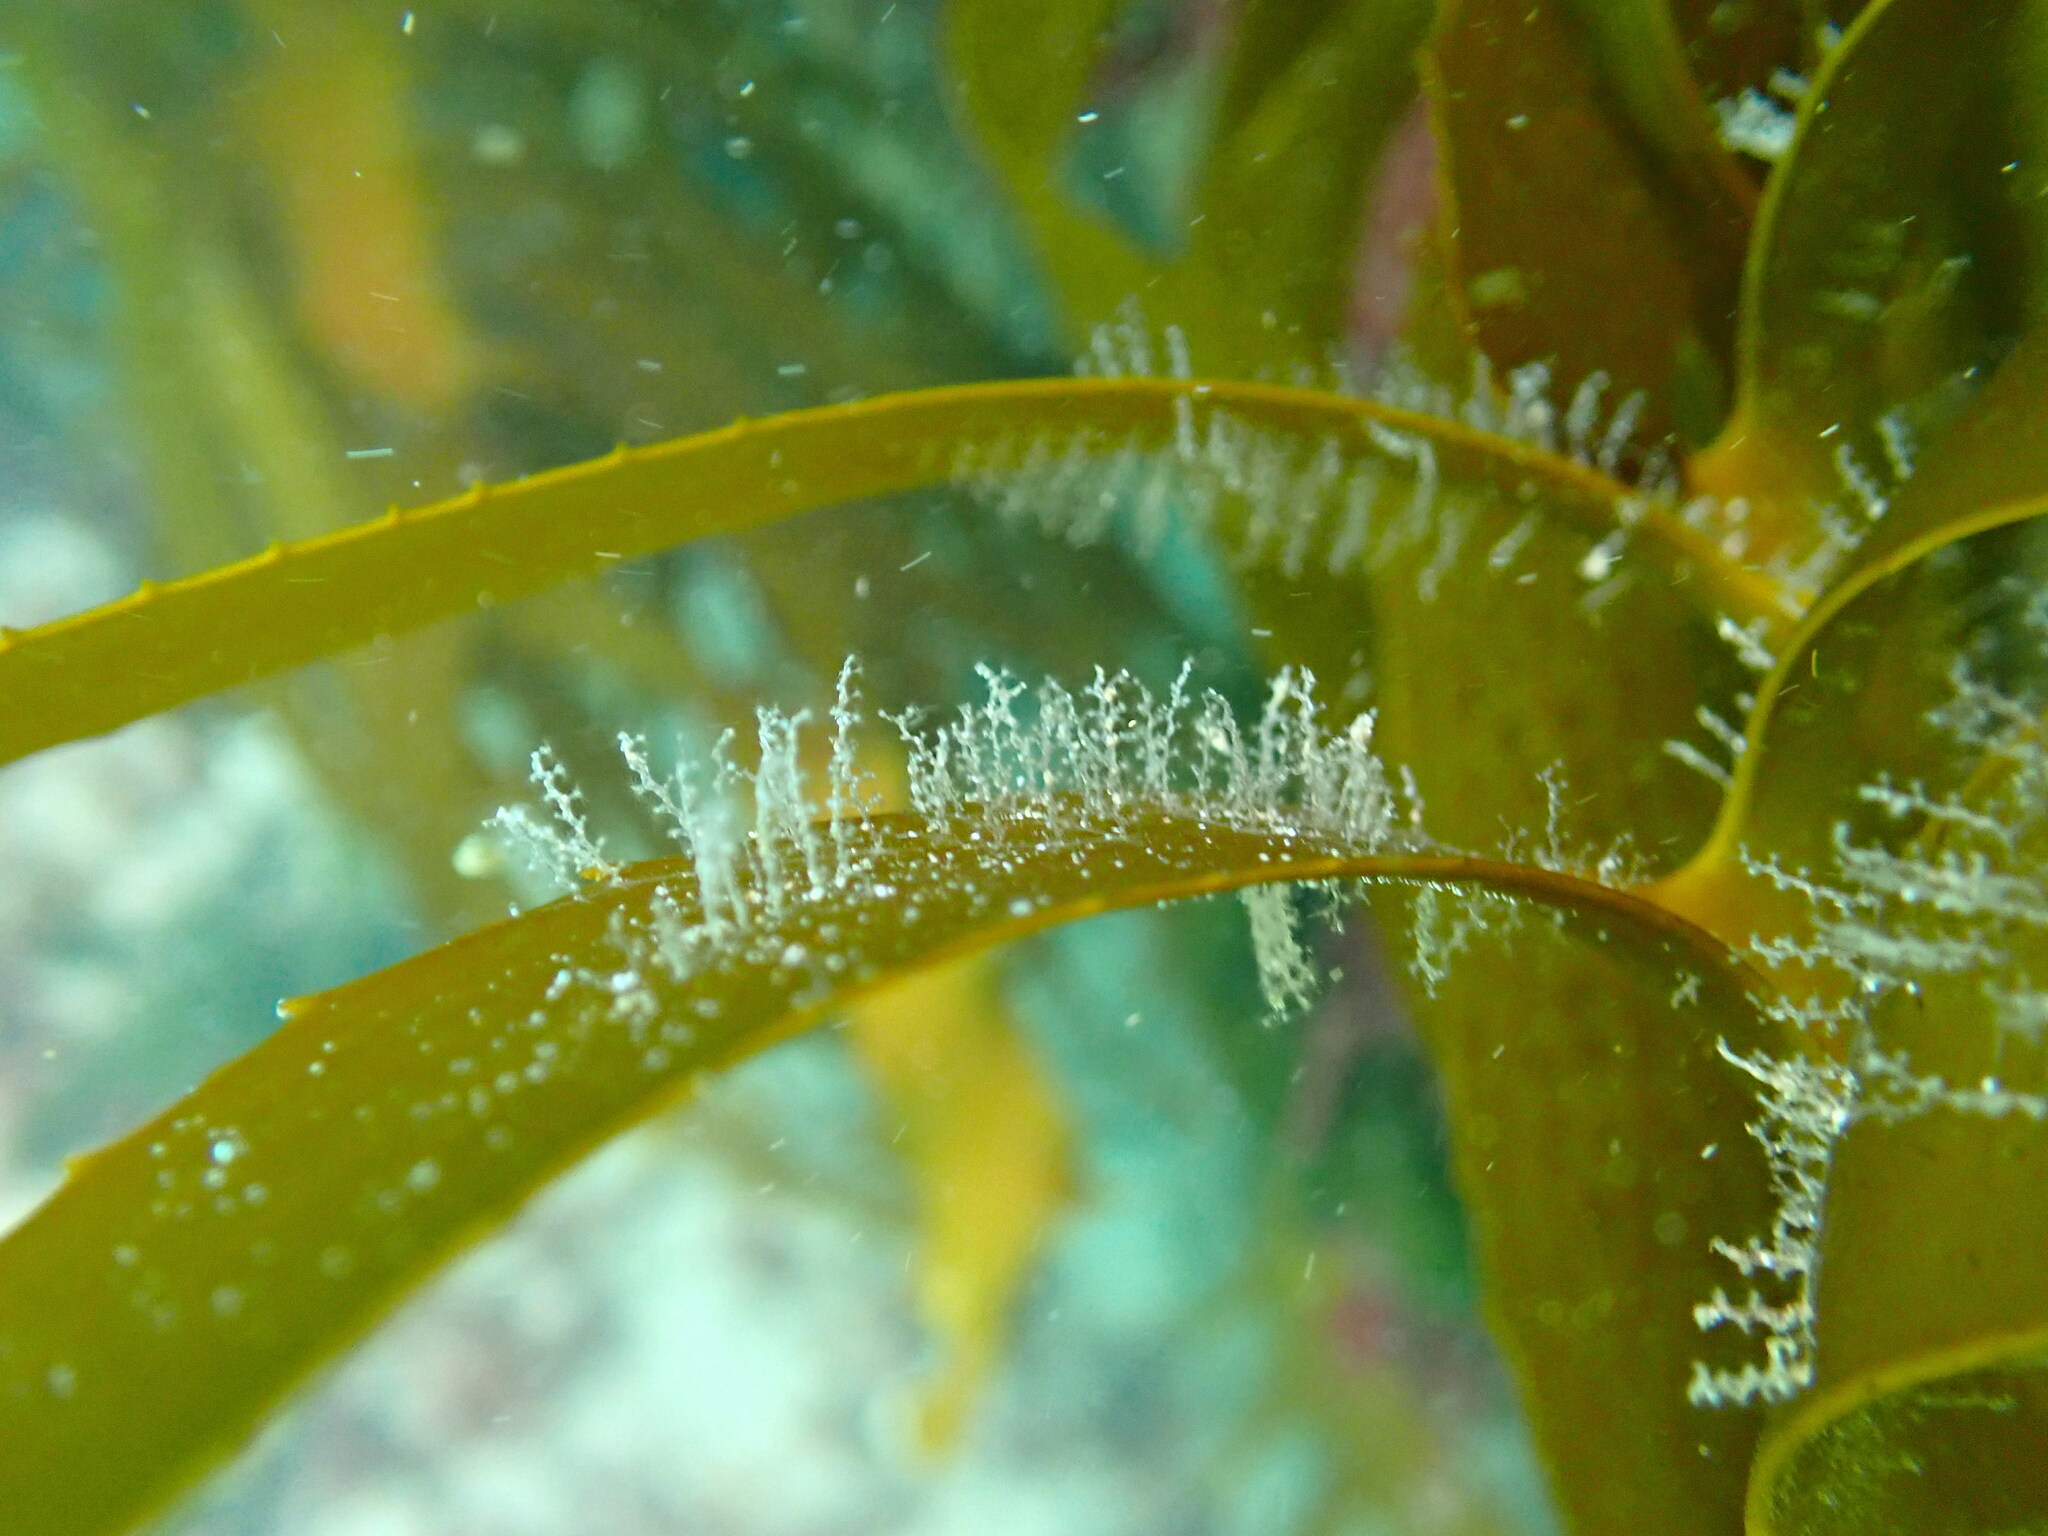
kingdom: Animalia
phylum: Cnidaria
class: Hydrozoa
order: Leptothecata
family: Campanulariidae
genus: Obelia
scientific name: Obelia geniculata
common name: Bell hydroid
